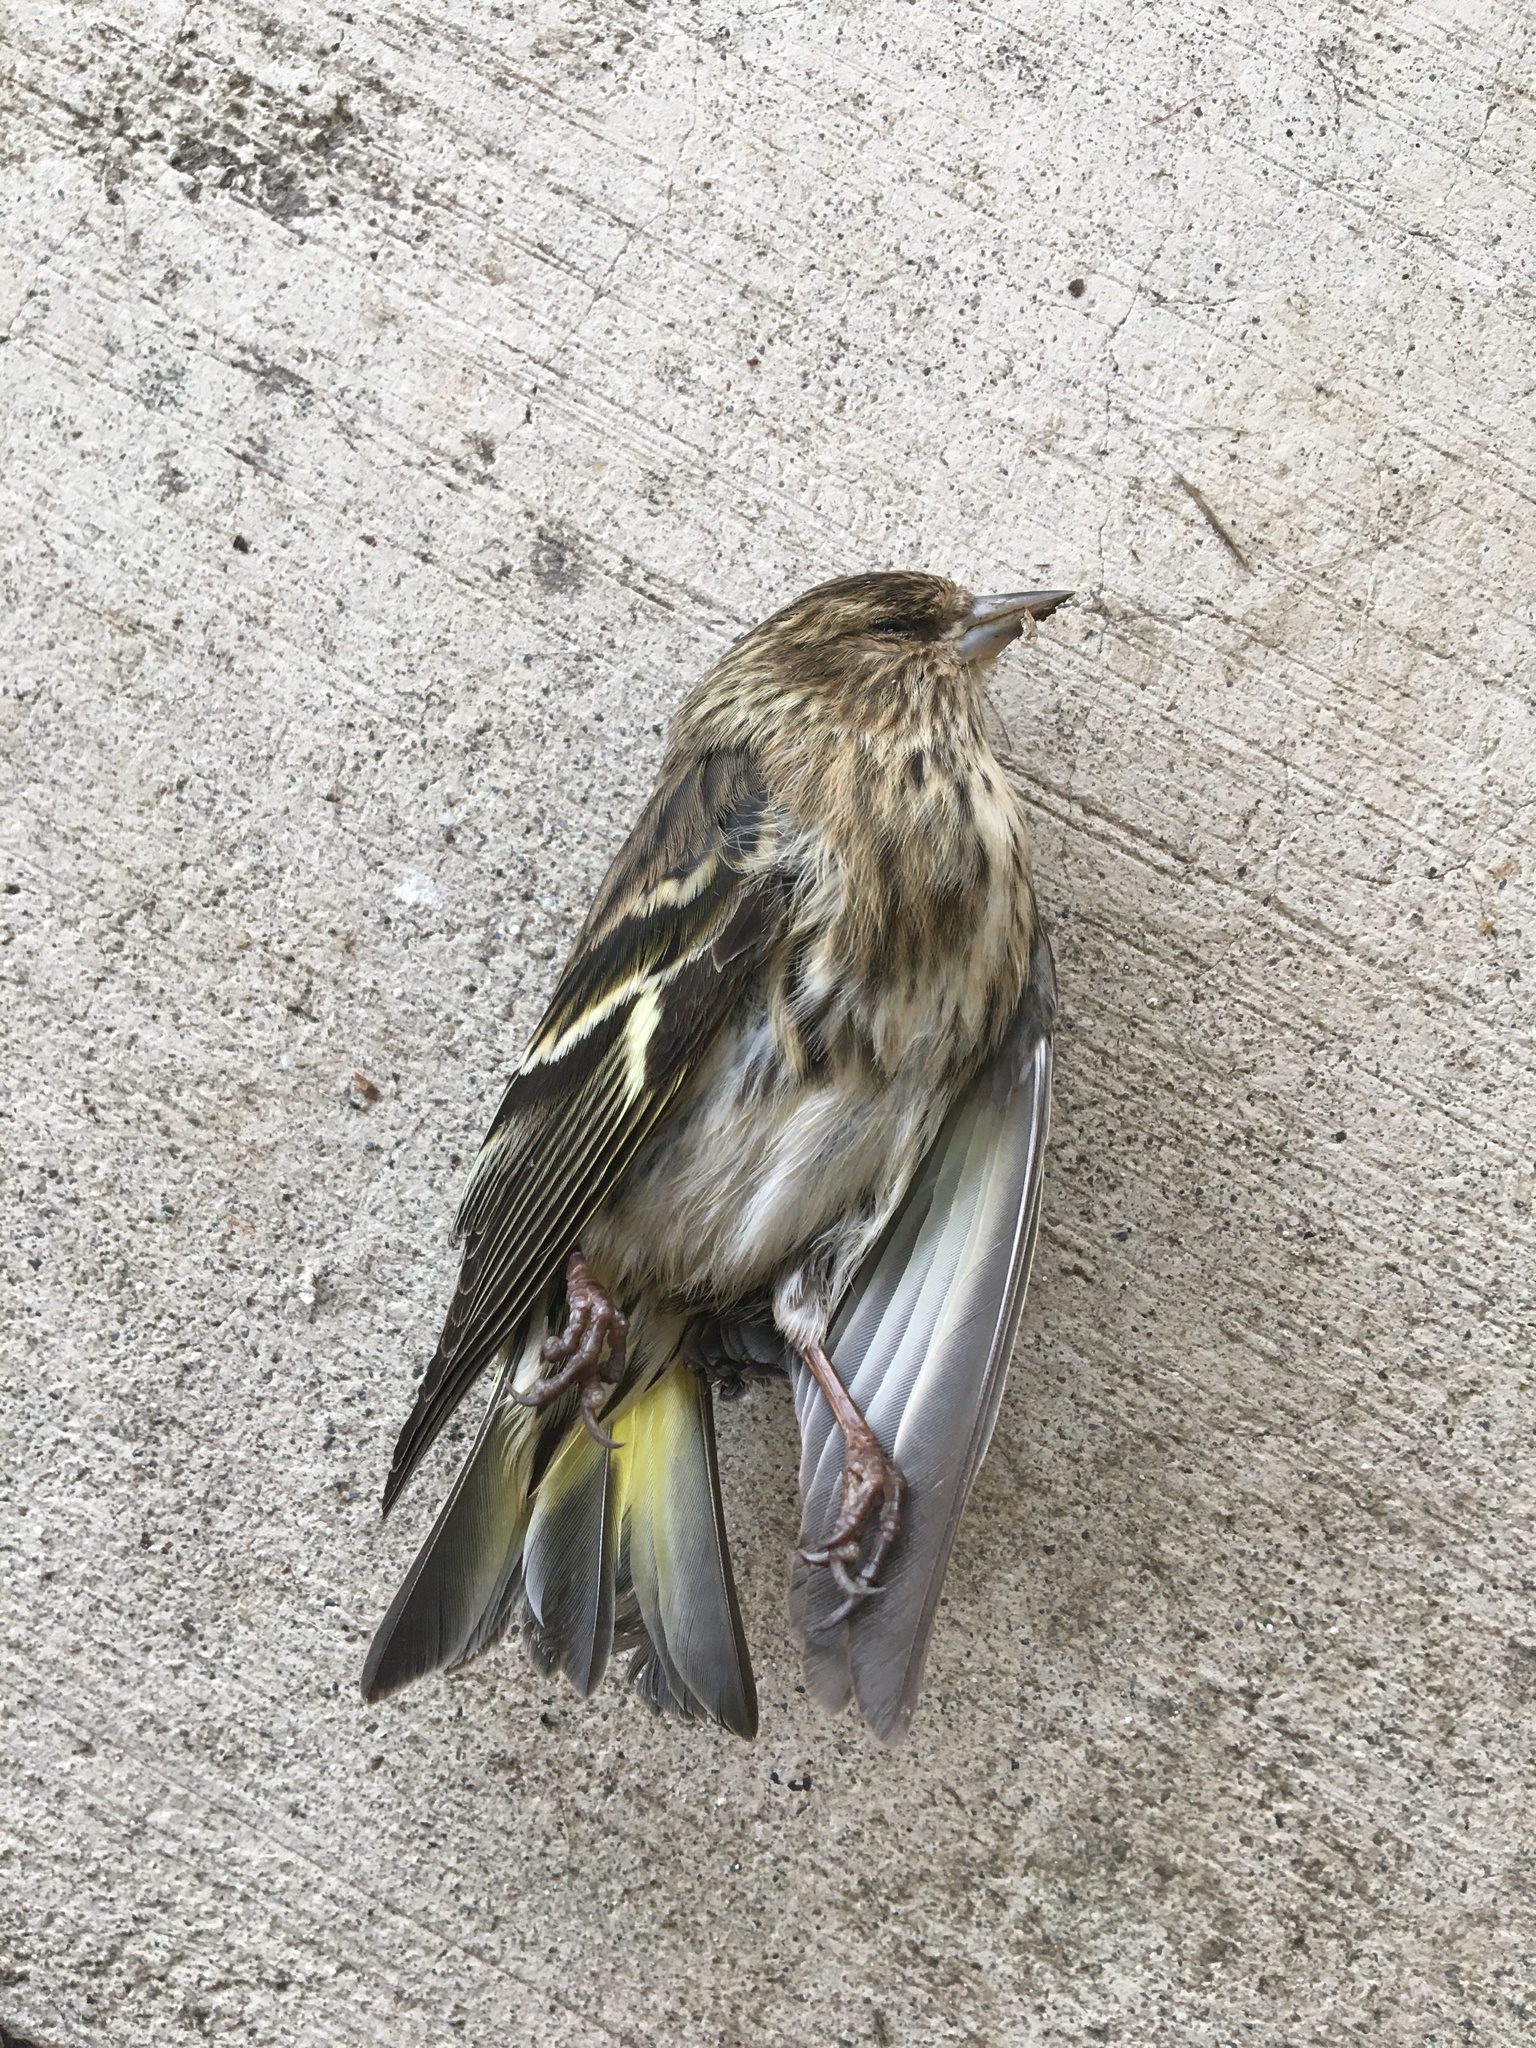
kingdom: Animalia
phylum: Chordata
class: Aves
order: Passeriformes
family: Fringillidae
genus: Spinus
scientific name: Spinus pinus
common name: Pine siskin
